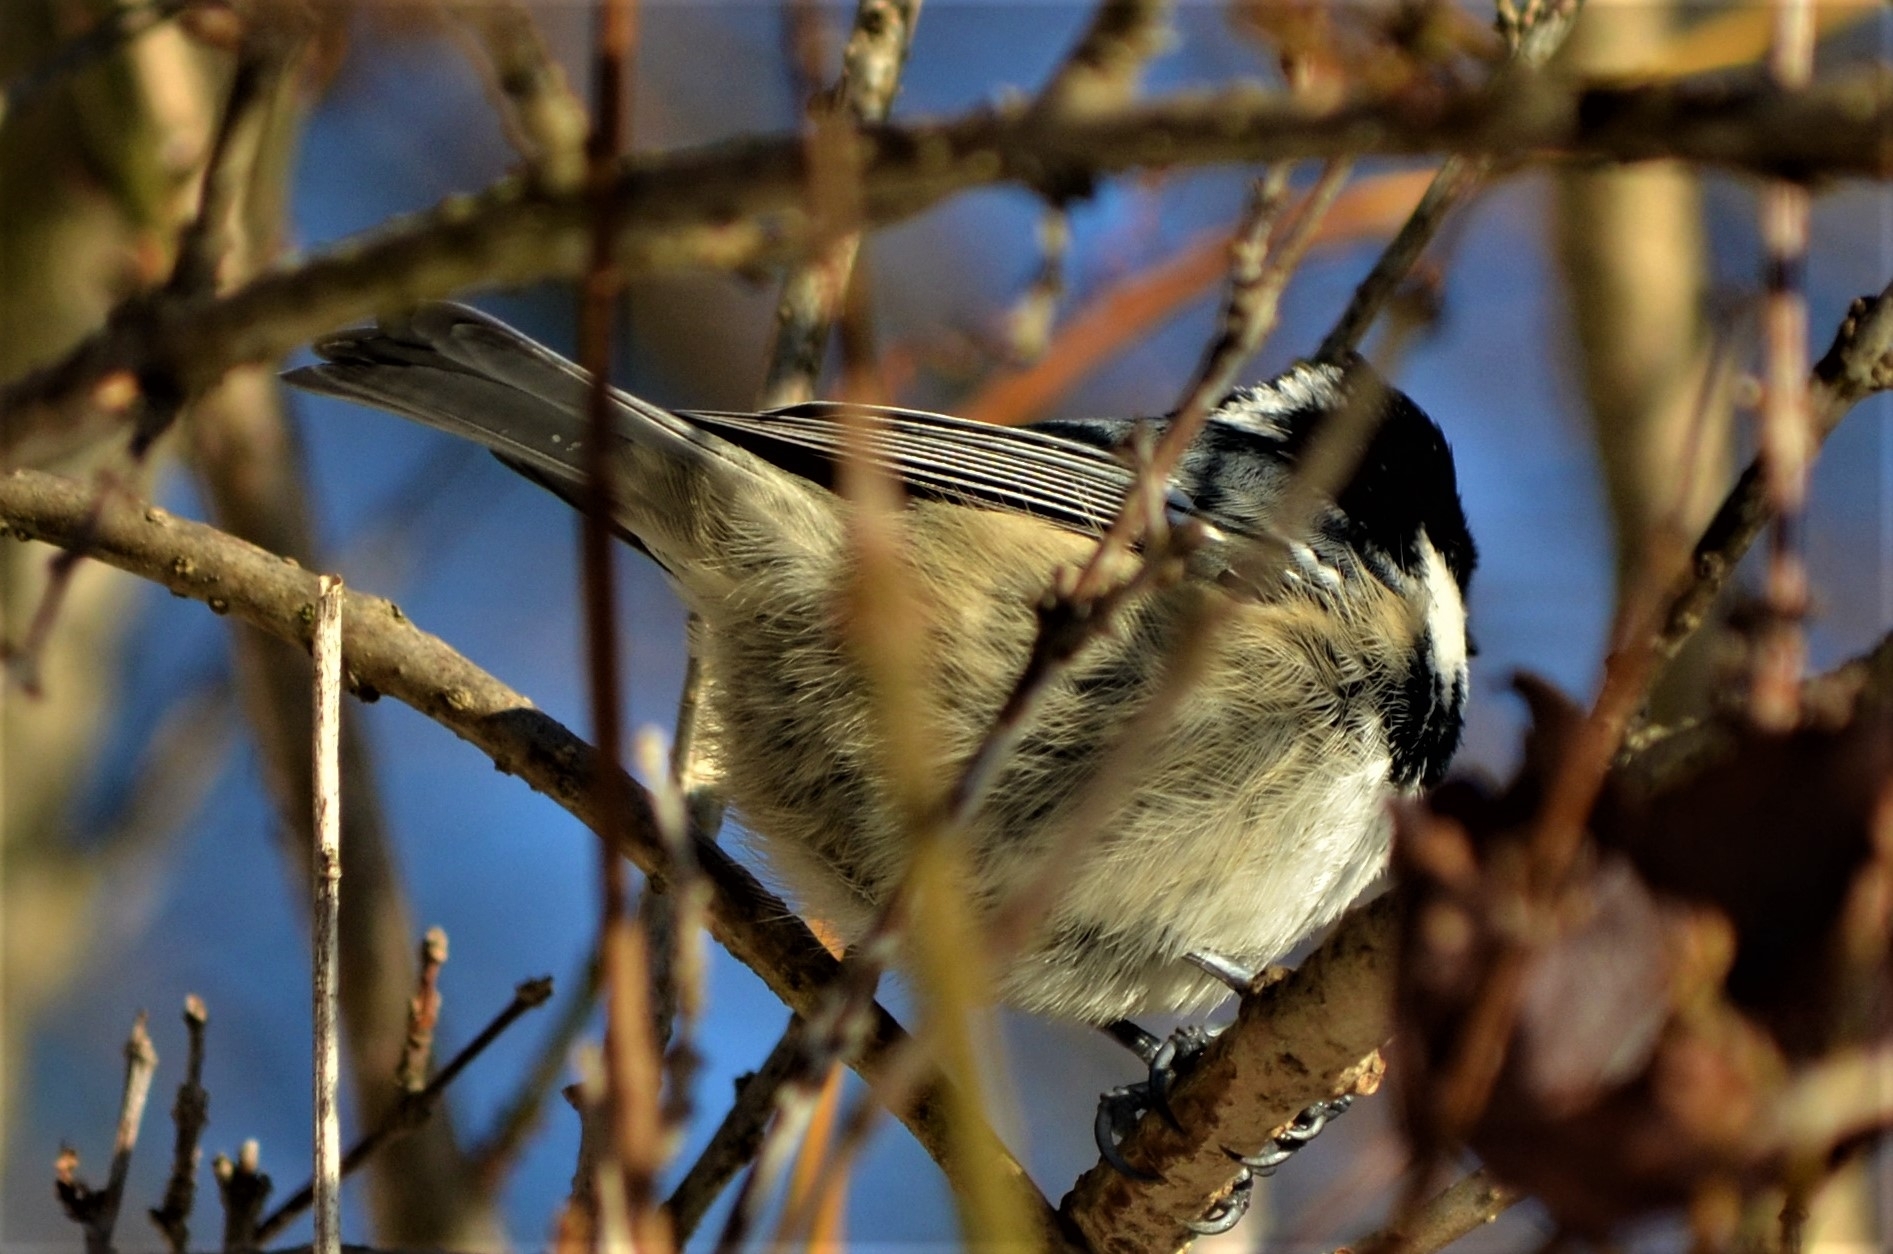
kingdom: Animalia
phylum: Chordata
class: Aves
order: Passeriformes
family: Paridae
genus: Periparus
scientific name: Periparus ater
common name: Coal tit
